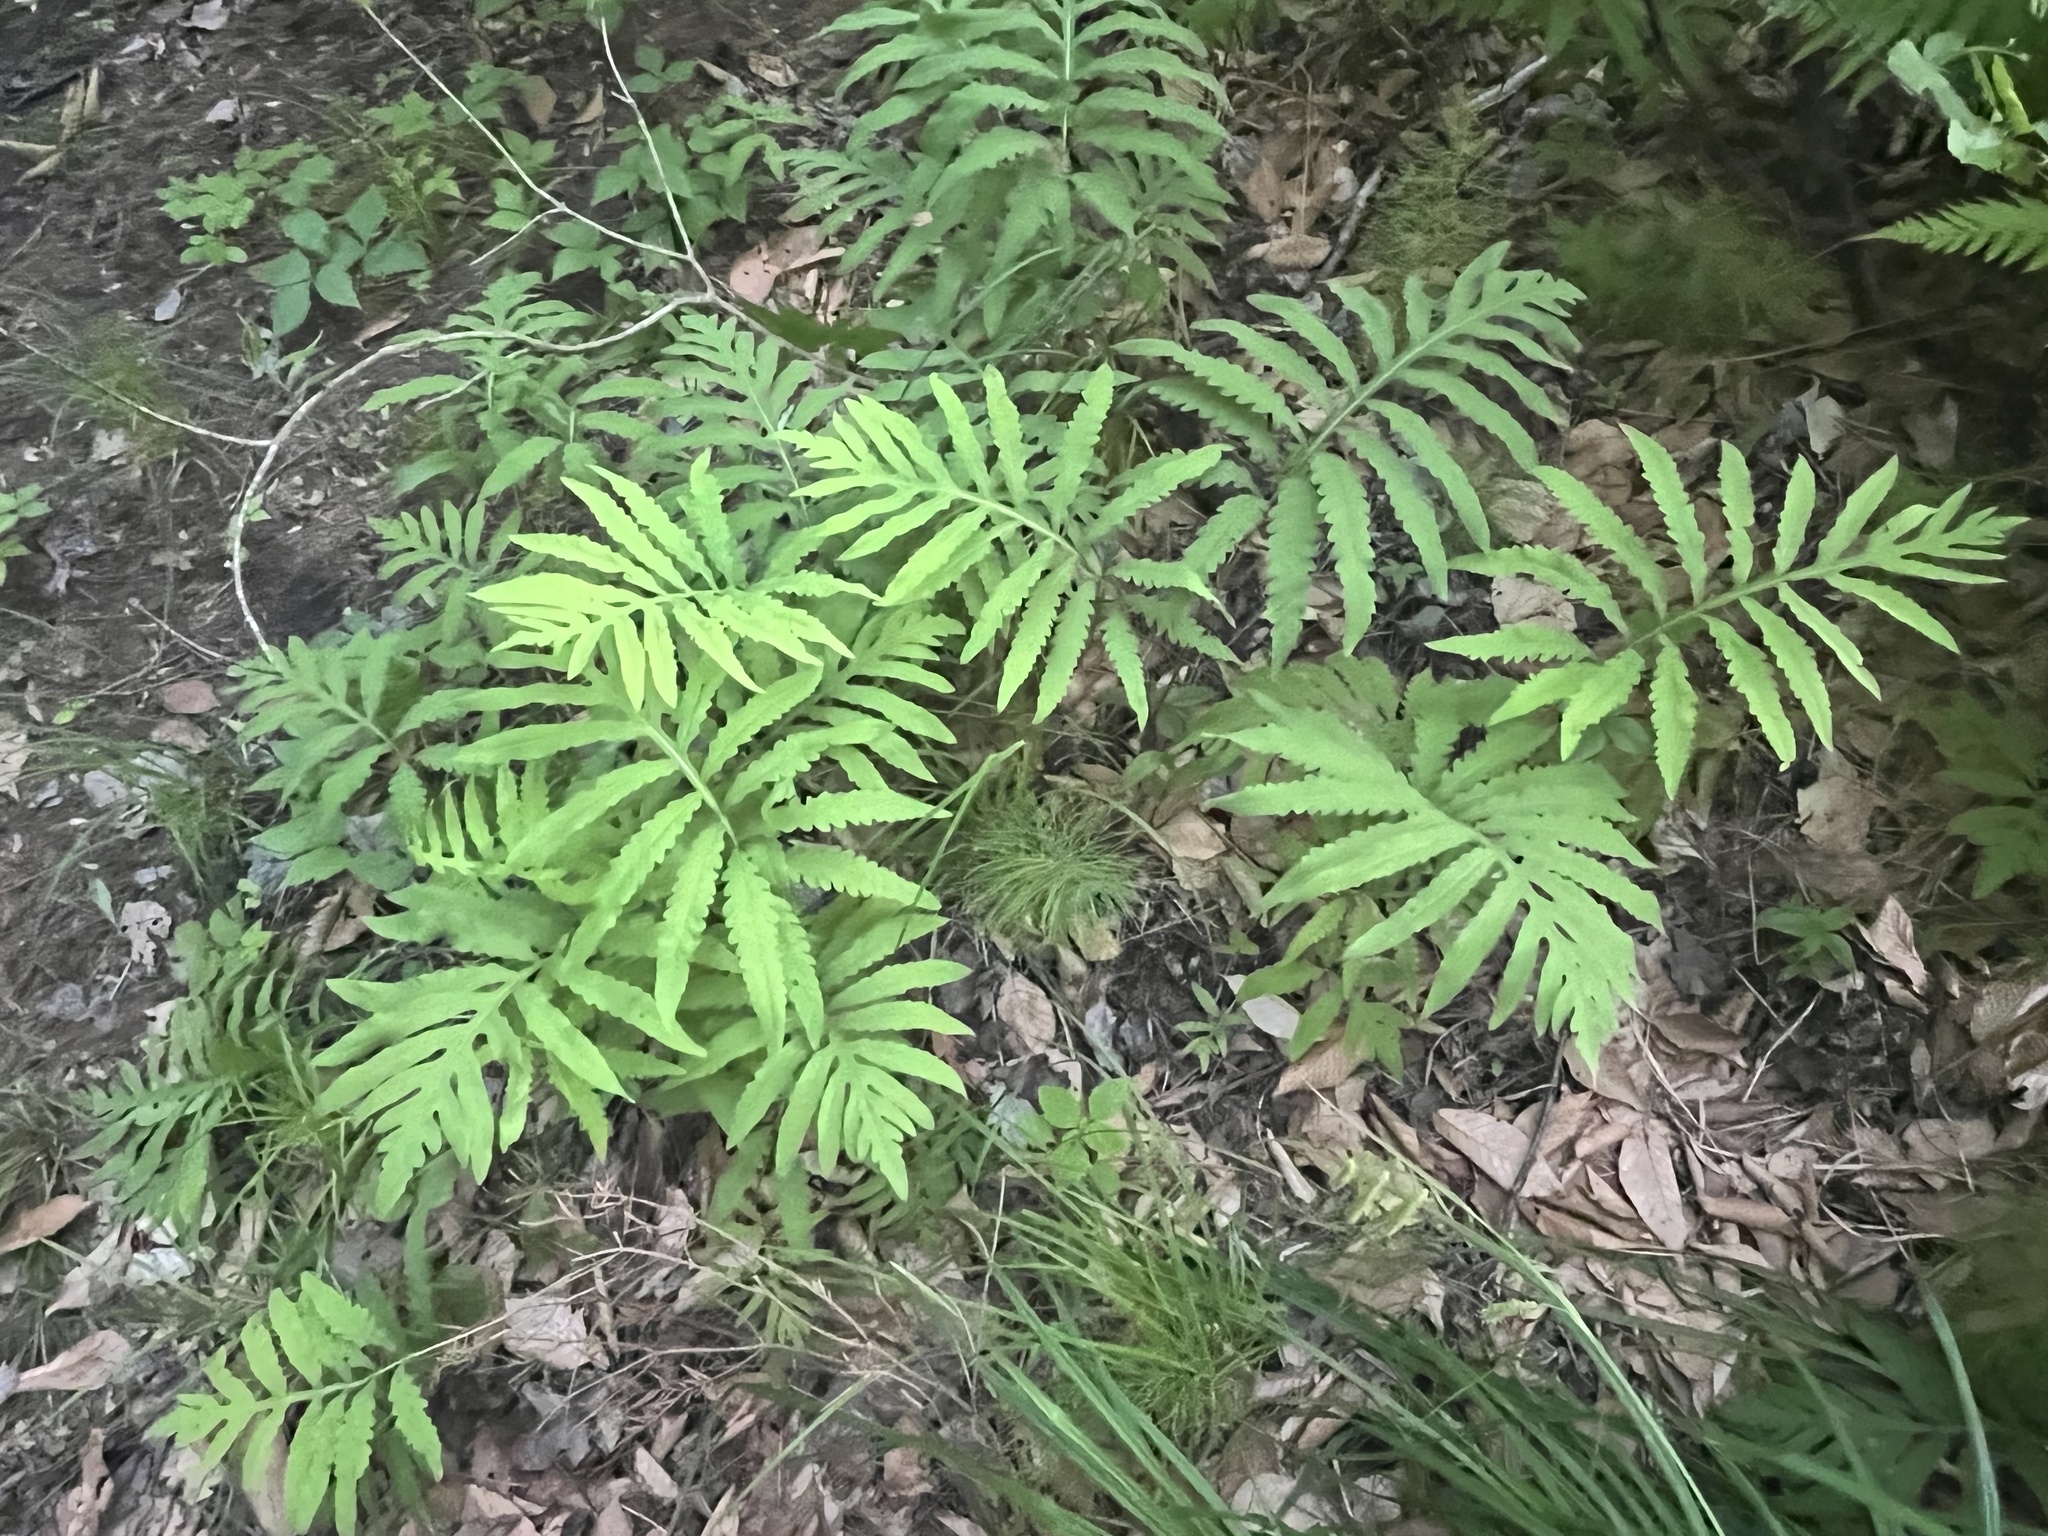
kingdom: Plantae
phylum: Tracheophyta
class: Polypodiopsida
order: Polypodiales
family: Onocleaceae
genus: Onoclea
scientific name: Onoclea sensibilis
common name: Sensitive fern
